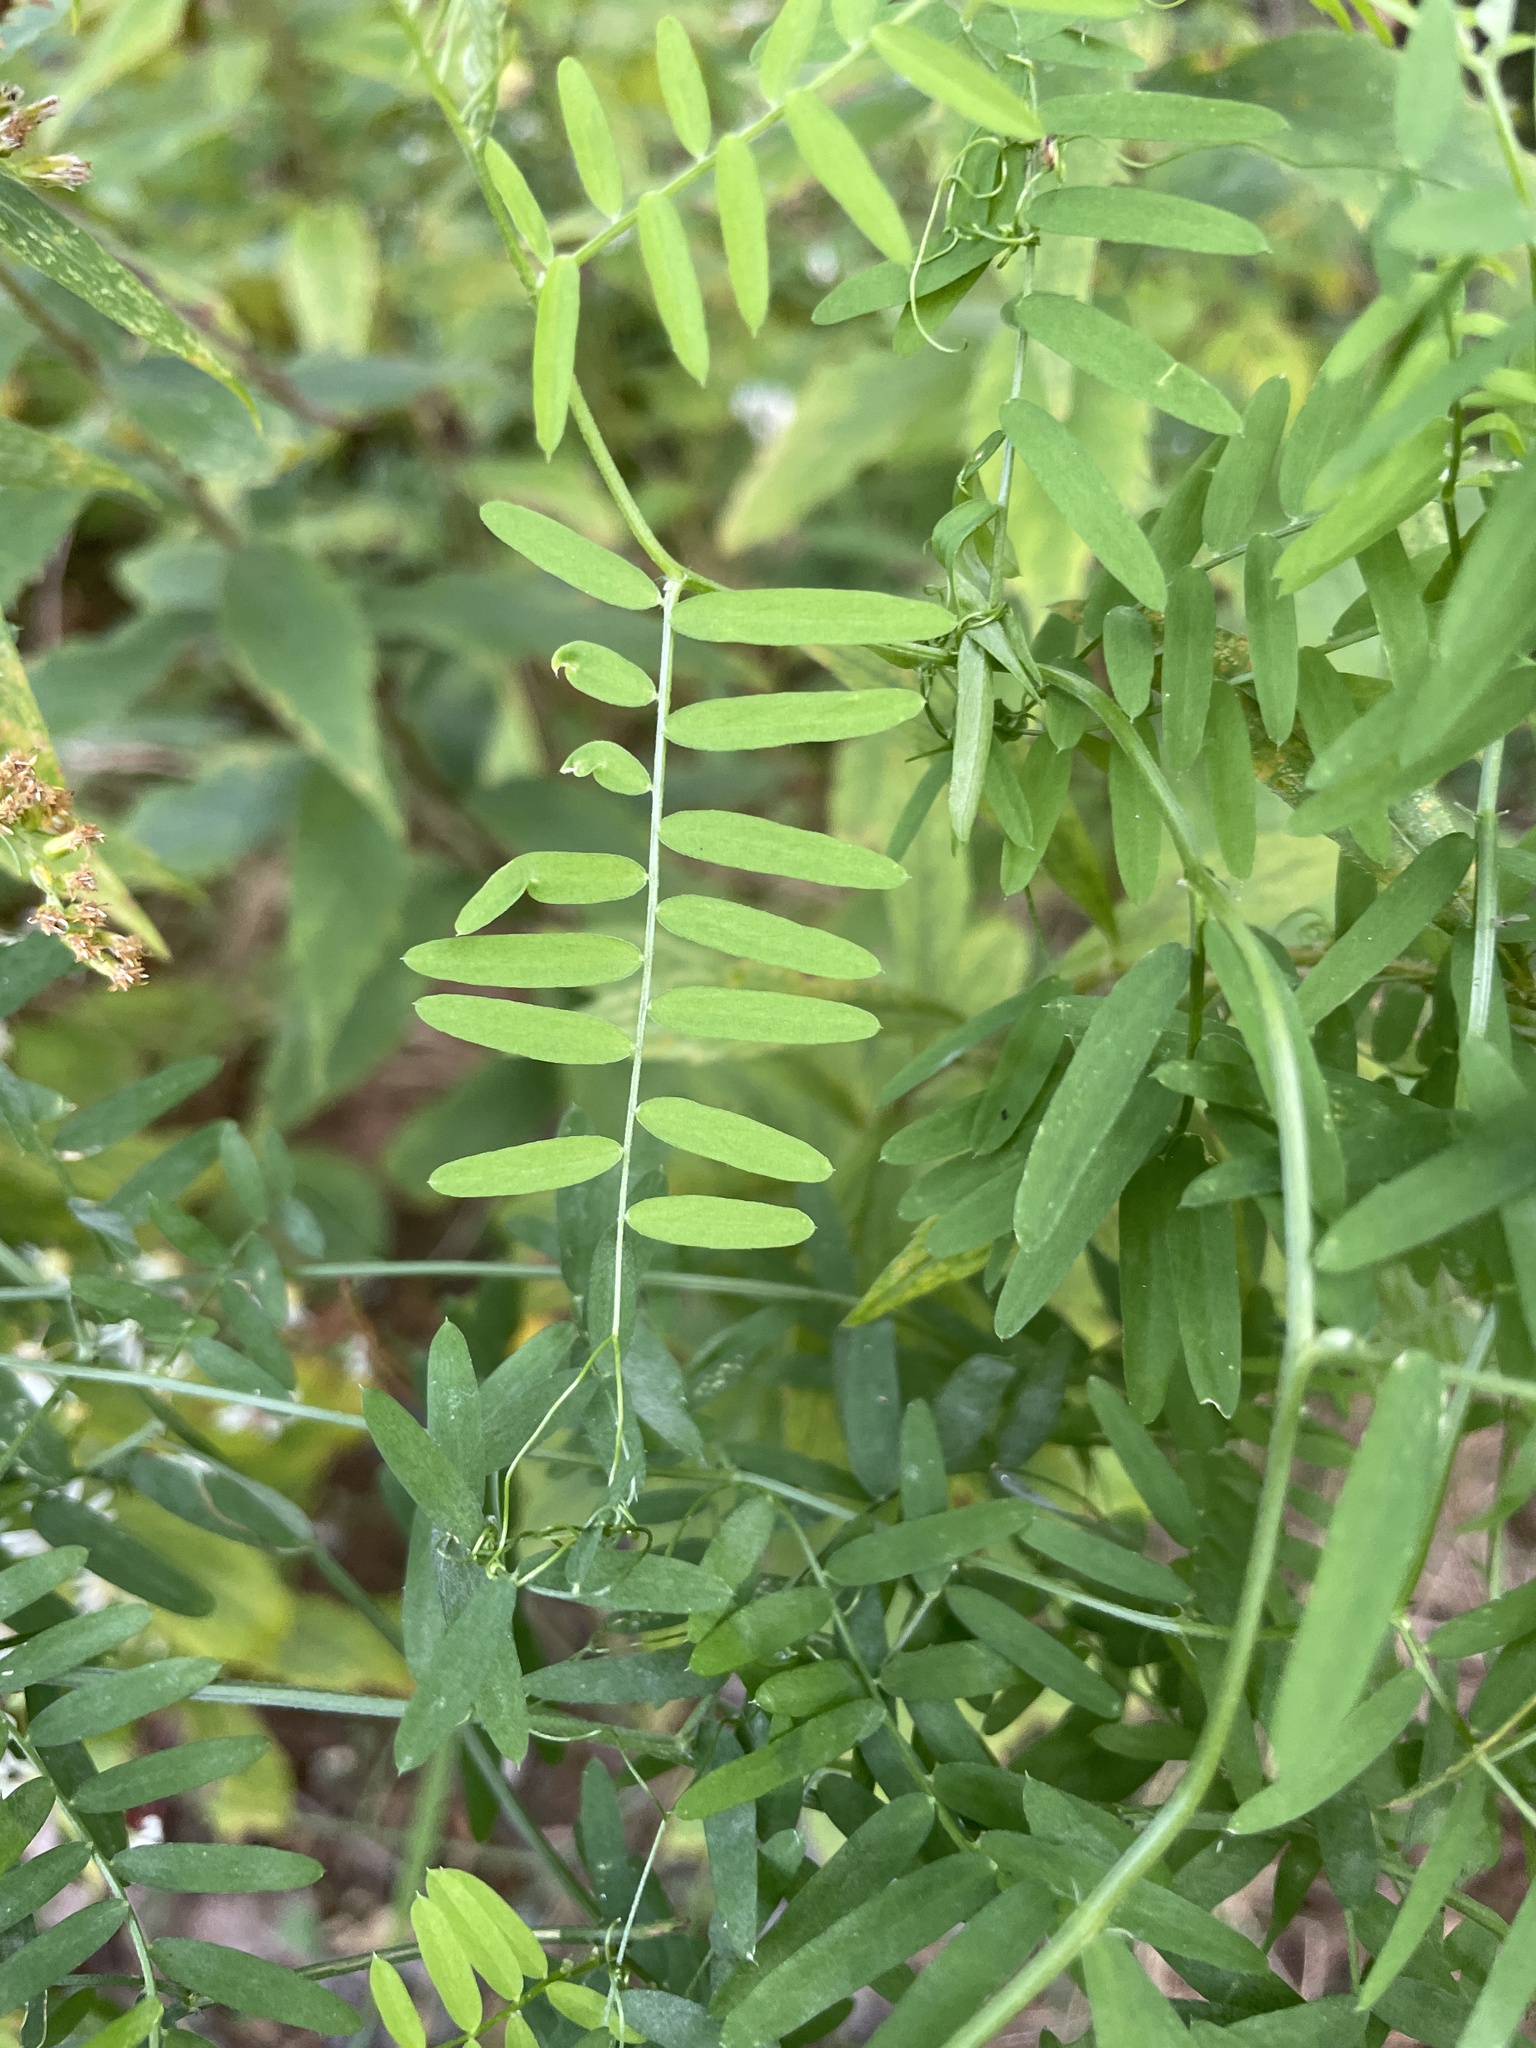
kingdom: Plantae
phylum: Tracheophyta
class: Magnoliopsida
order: Fabales
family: Fabaceae
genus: Vicia
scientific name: Vicia cracca
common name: Bird vetch
